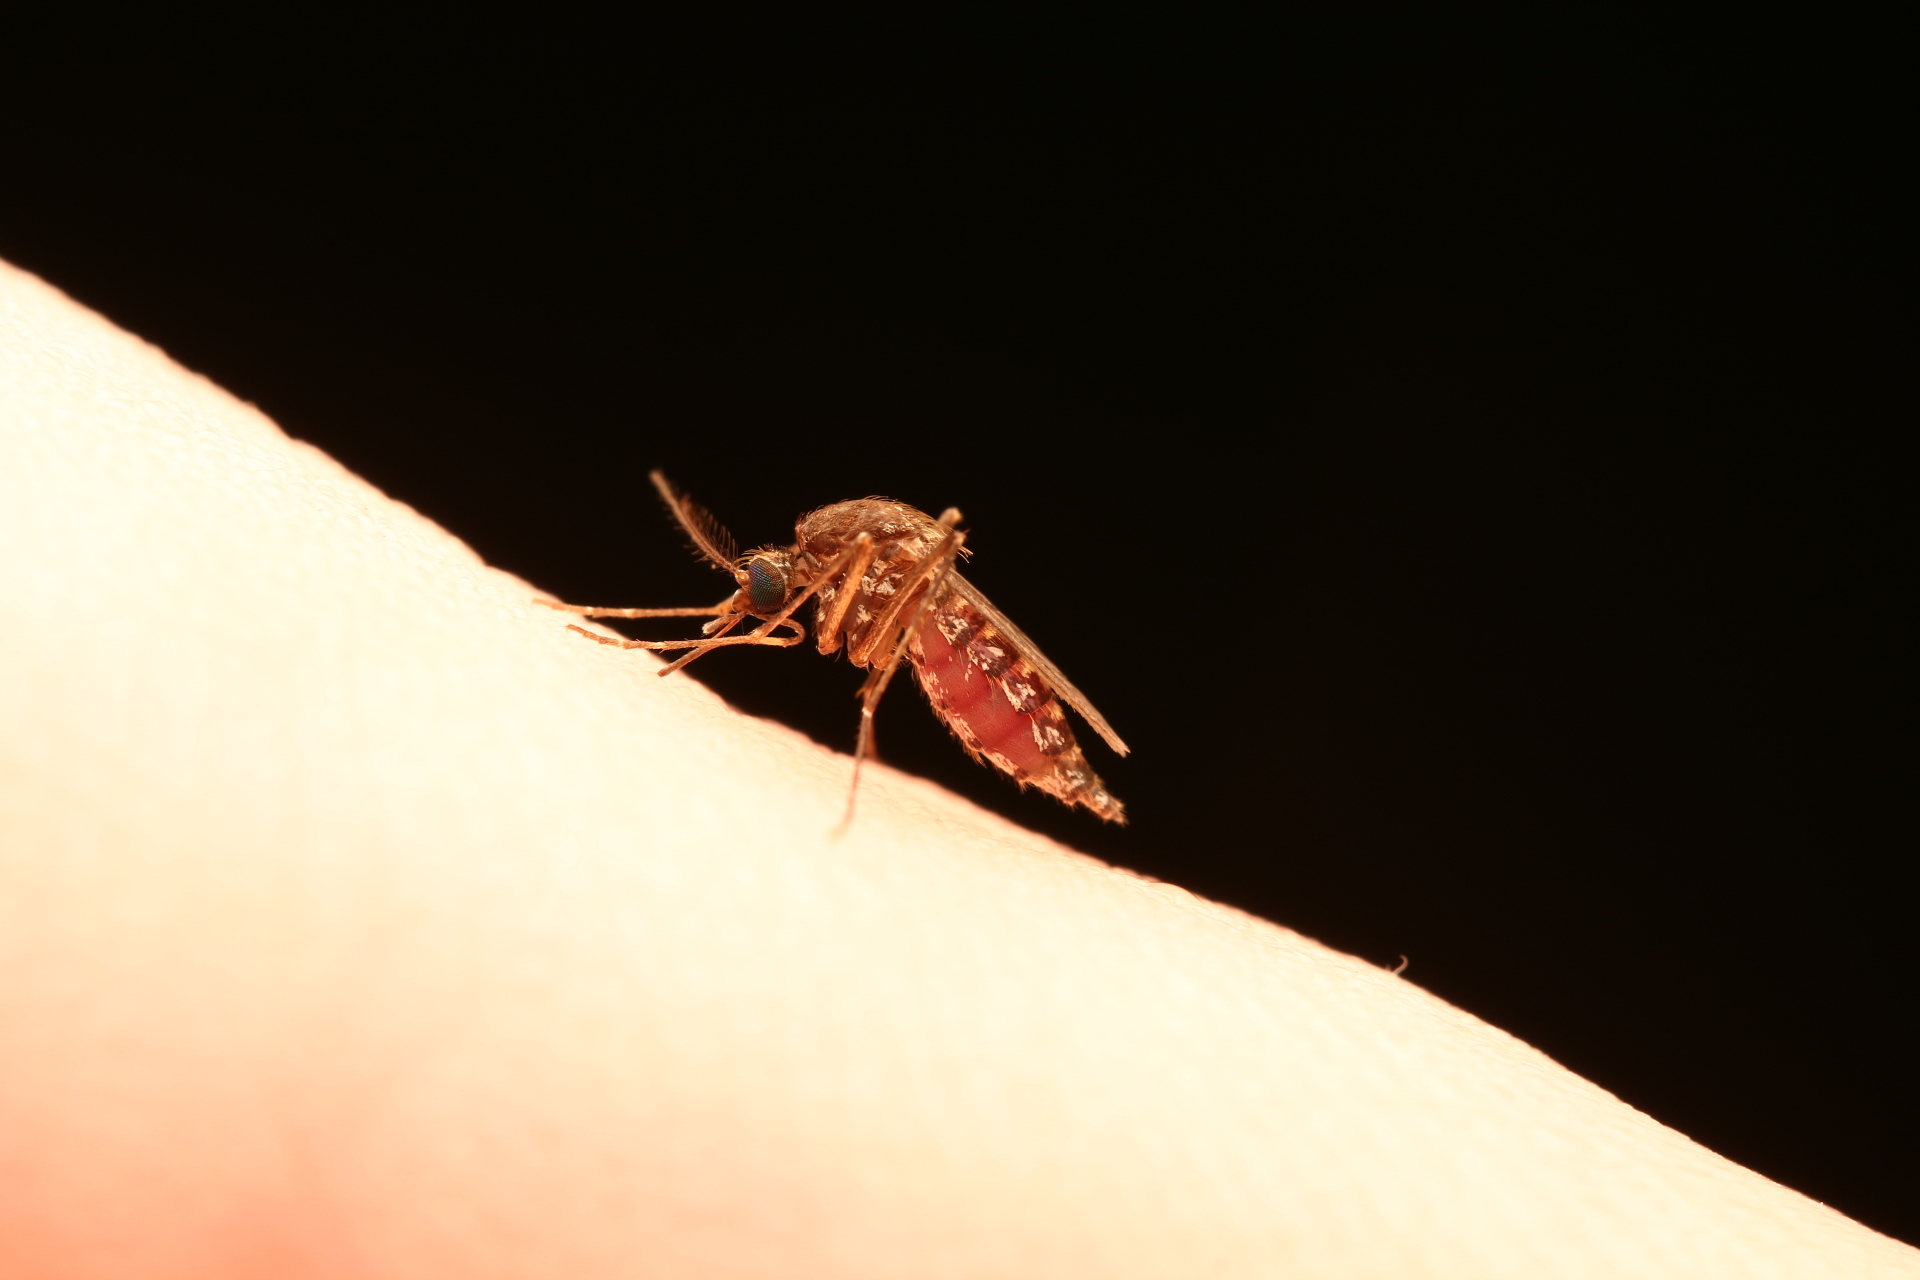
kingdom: Animalia
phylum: Arthropoda
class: Insecta
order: Diptera
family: Culicidae
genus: Aedes
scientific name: Aedes taeniorhynchus
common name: Black salt marsh mosquito
